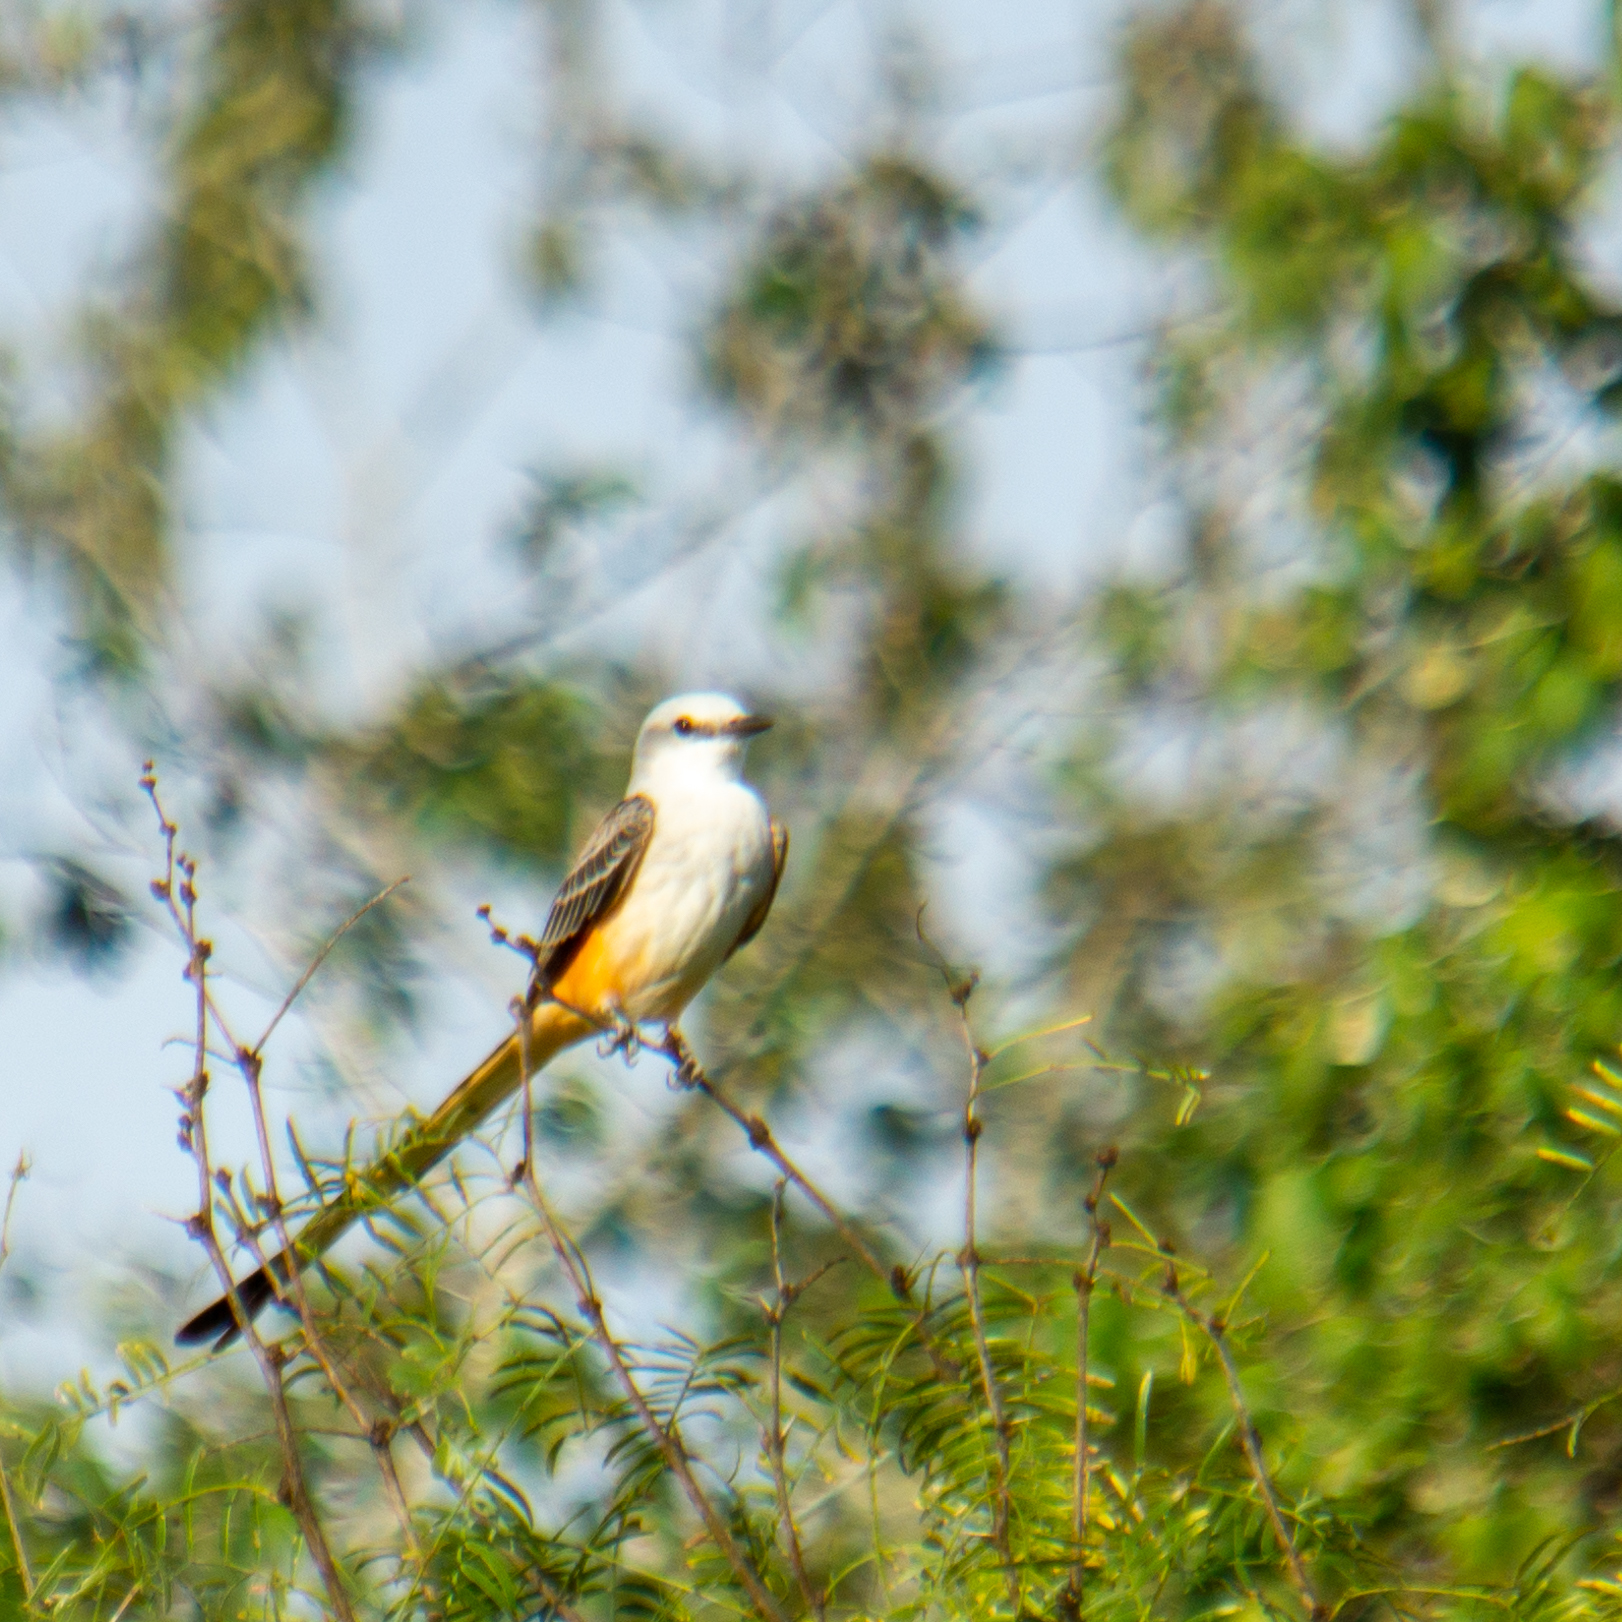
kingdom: Animalia
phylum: Chordata
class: Aves
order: Passeriformes
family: Tyrannidae
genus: Tyrannus
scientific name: Tyrannus forficatus
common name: Scissor-tailed flycatcher
